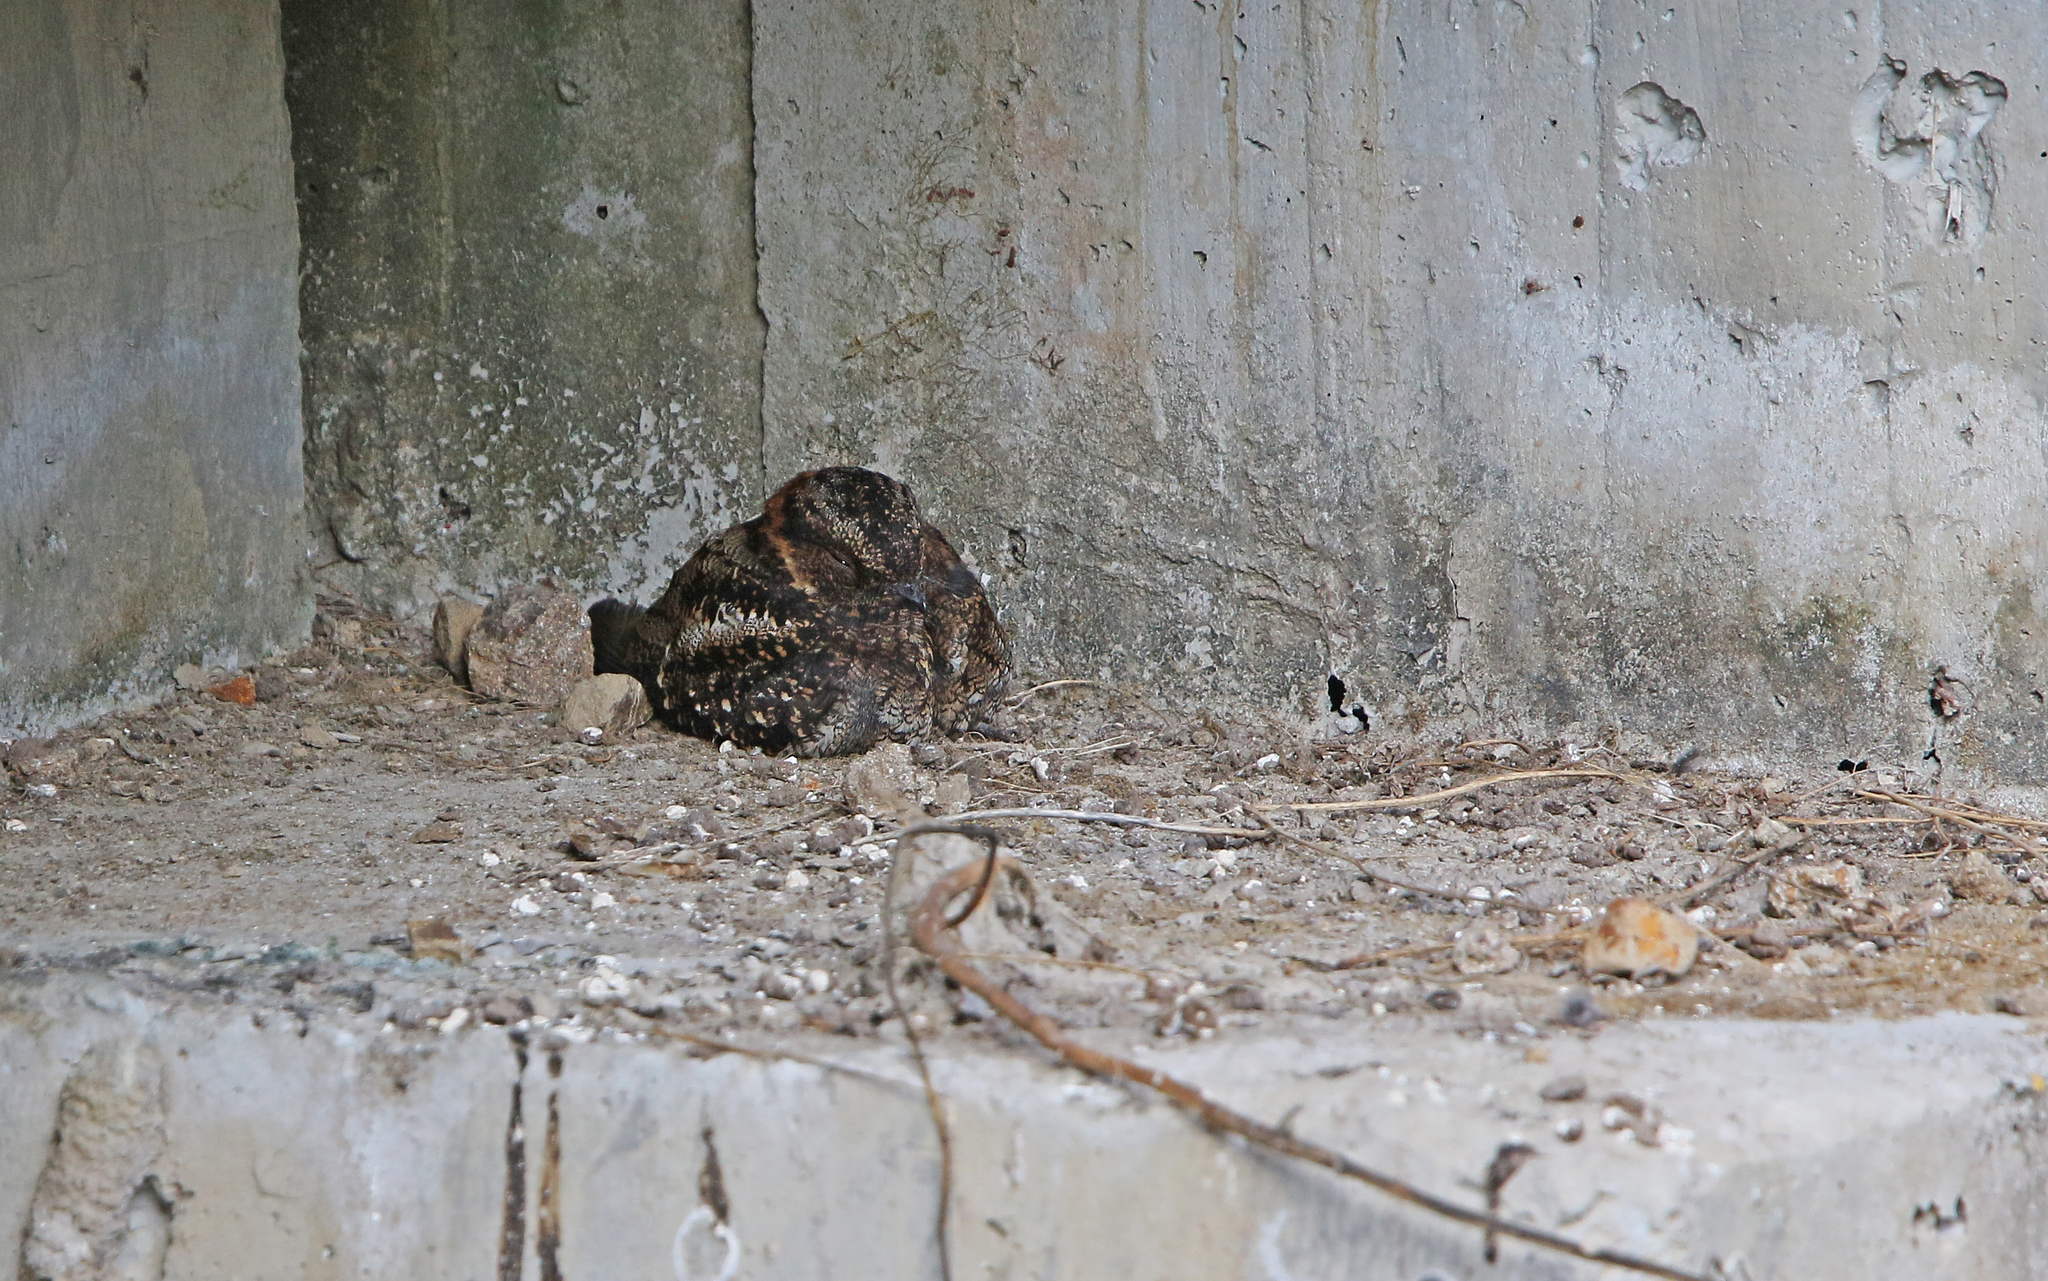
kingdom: Animalia
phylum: Chordata
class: Aves
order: Caprimulgiformes
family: Caprimulgidae
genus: Uropsalis
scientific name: Uropsalis lyra
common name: Lyre-tailed nightjar
